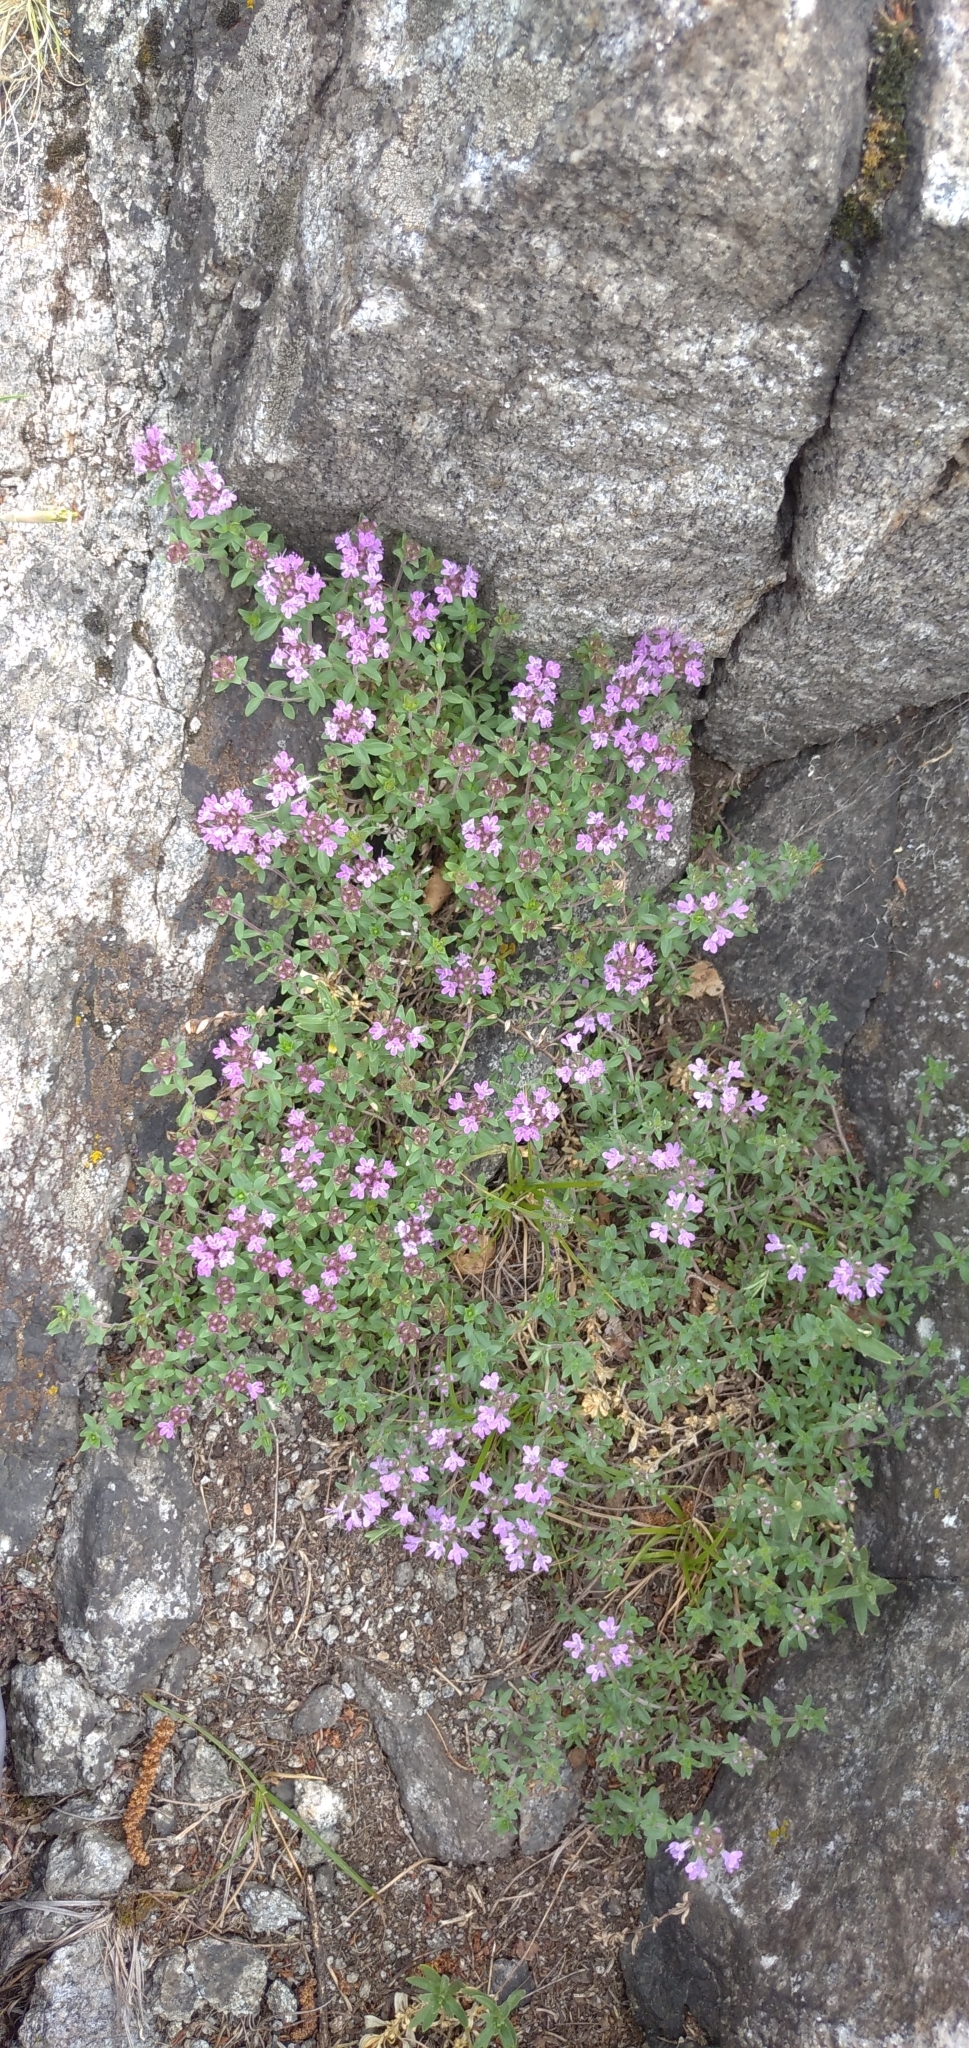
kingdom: Plantae
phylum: Tracheophyta
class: Magnoliopsida
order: Lamiales
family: Lamiaceae
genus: Thymus
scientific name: Thymus punctulosus
